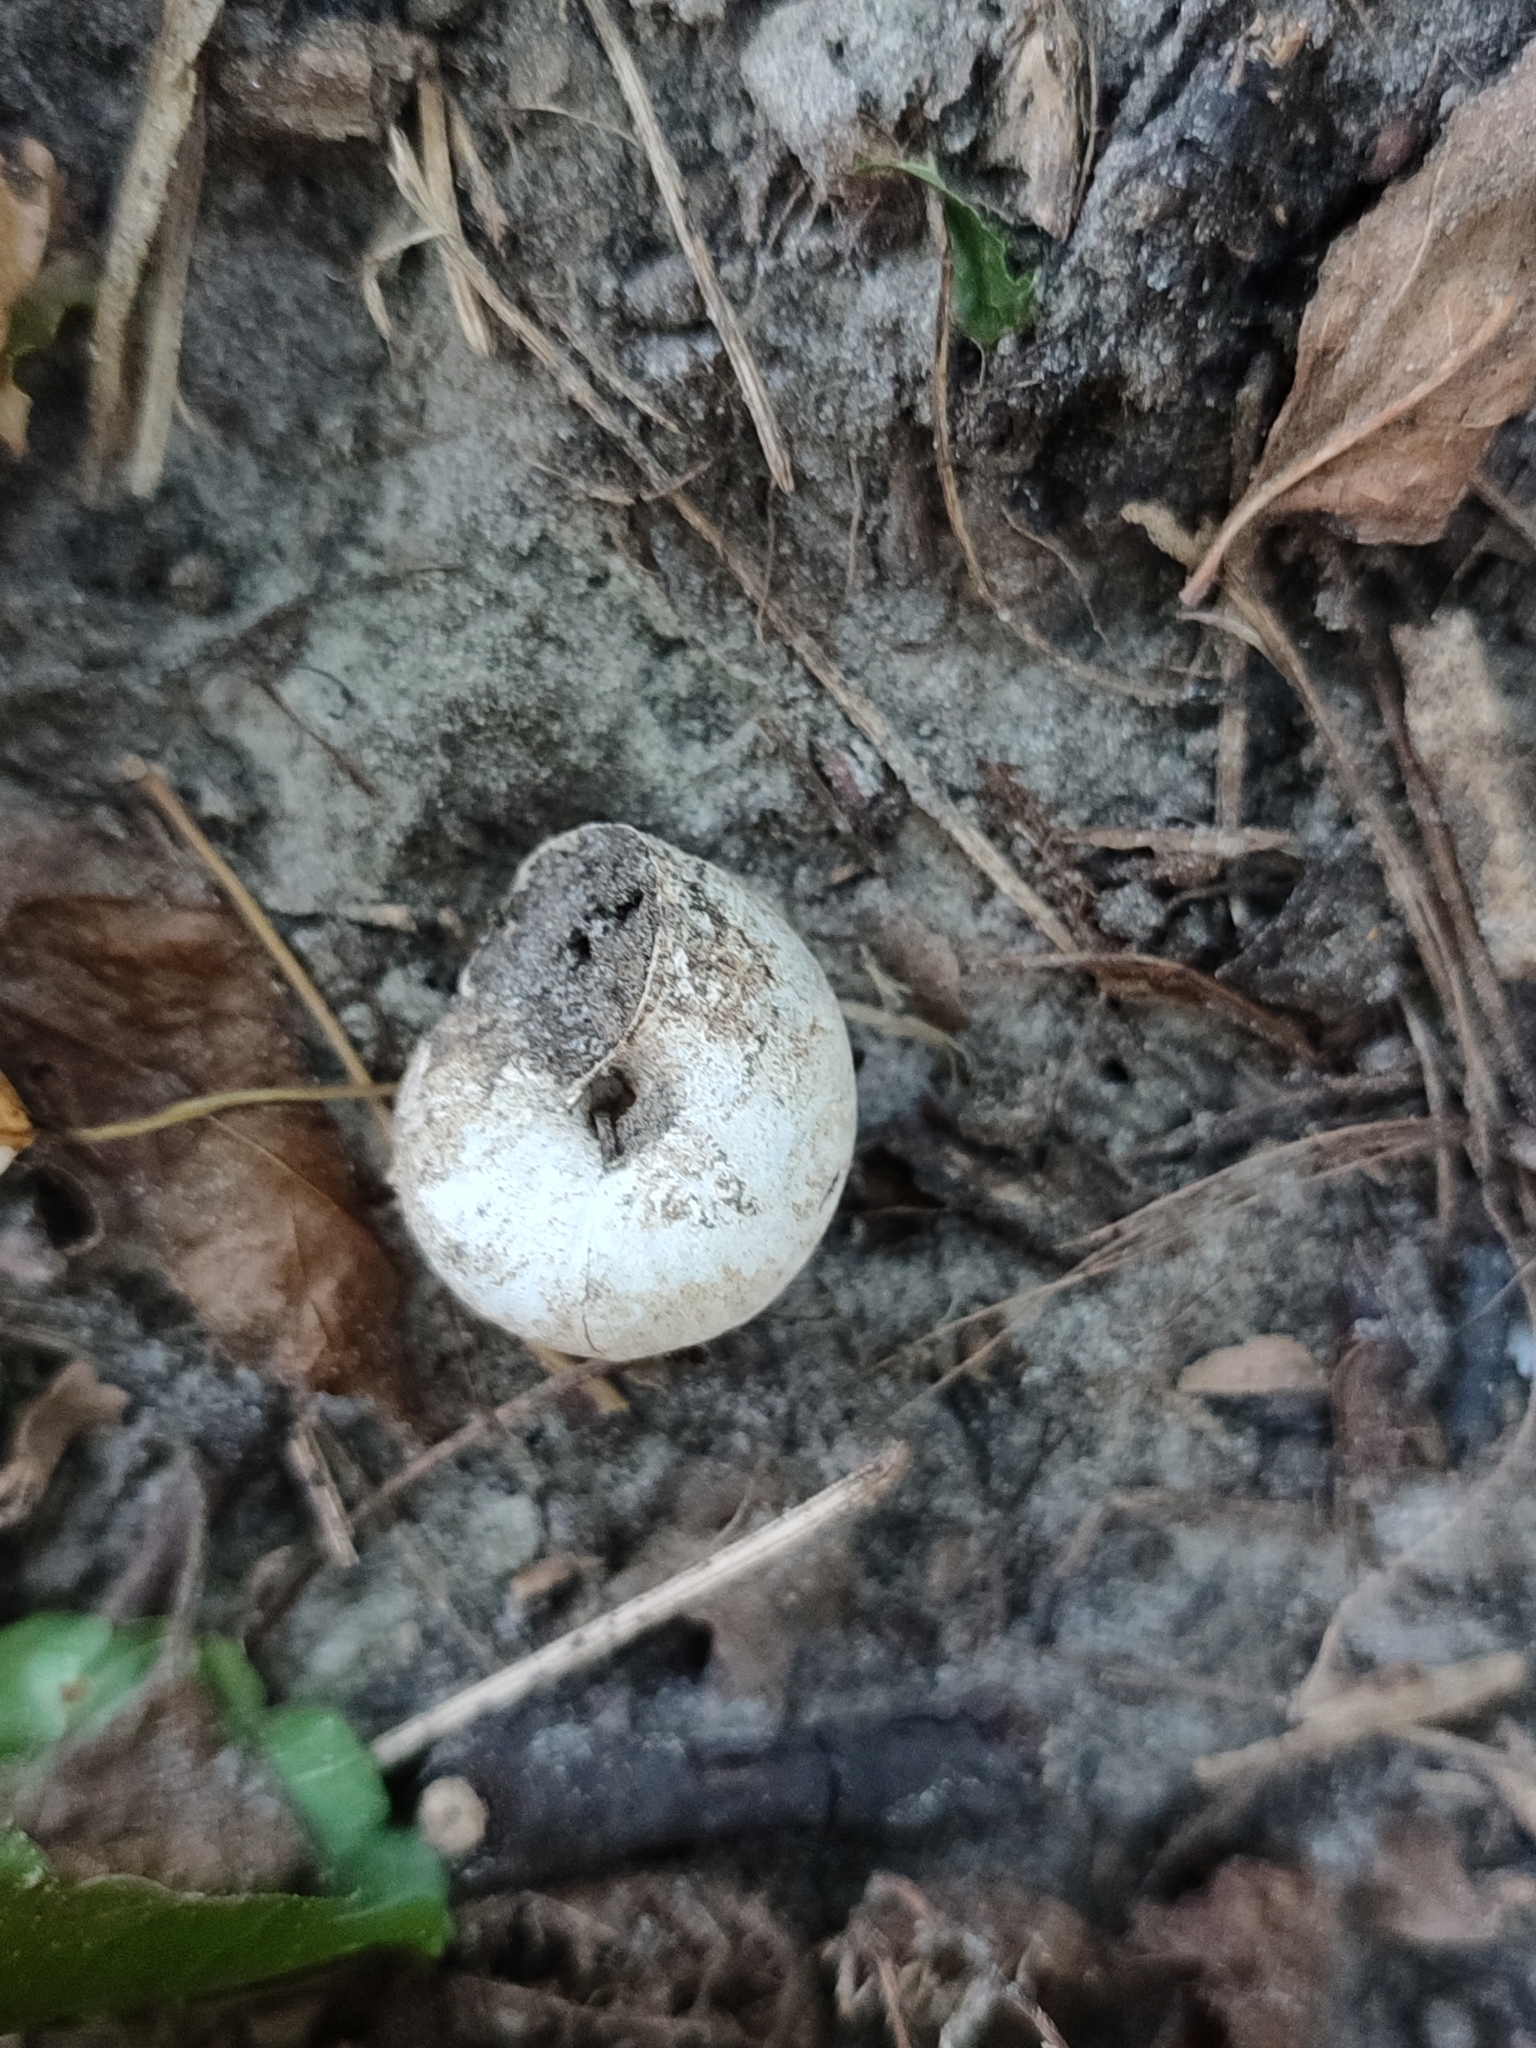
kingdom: Animalia
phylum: Mollusca
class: Gastropoda
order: Stylommatophora
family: Camaenidae
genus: Fruticicola
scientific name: Fruticicola fruticum
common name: Bush snail
